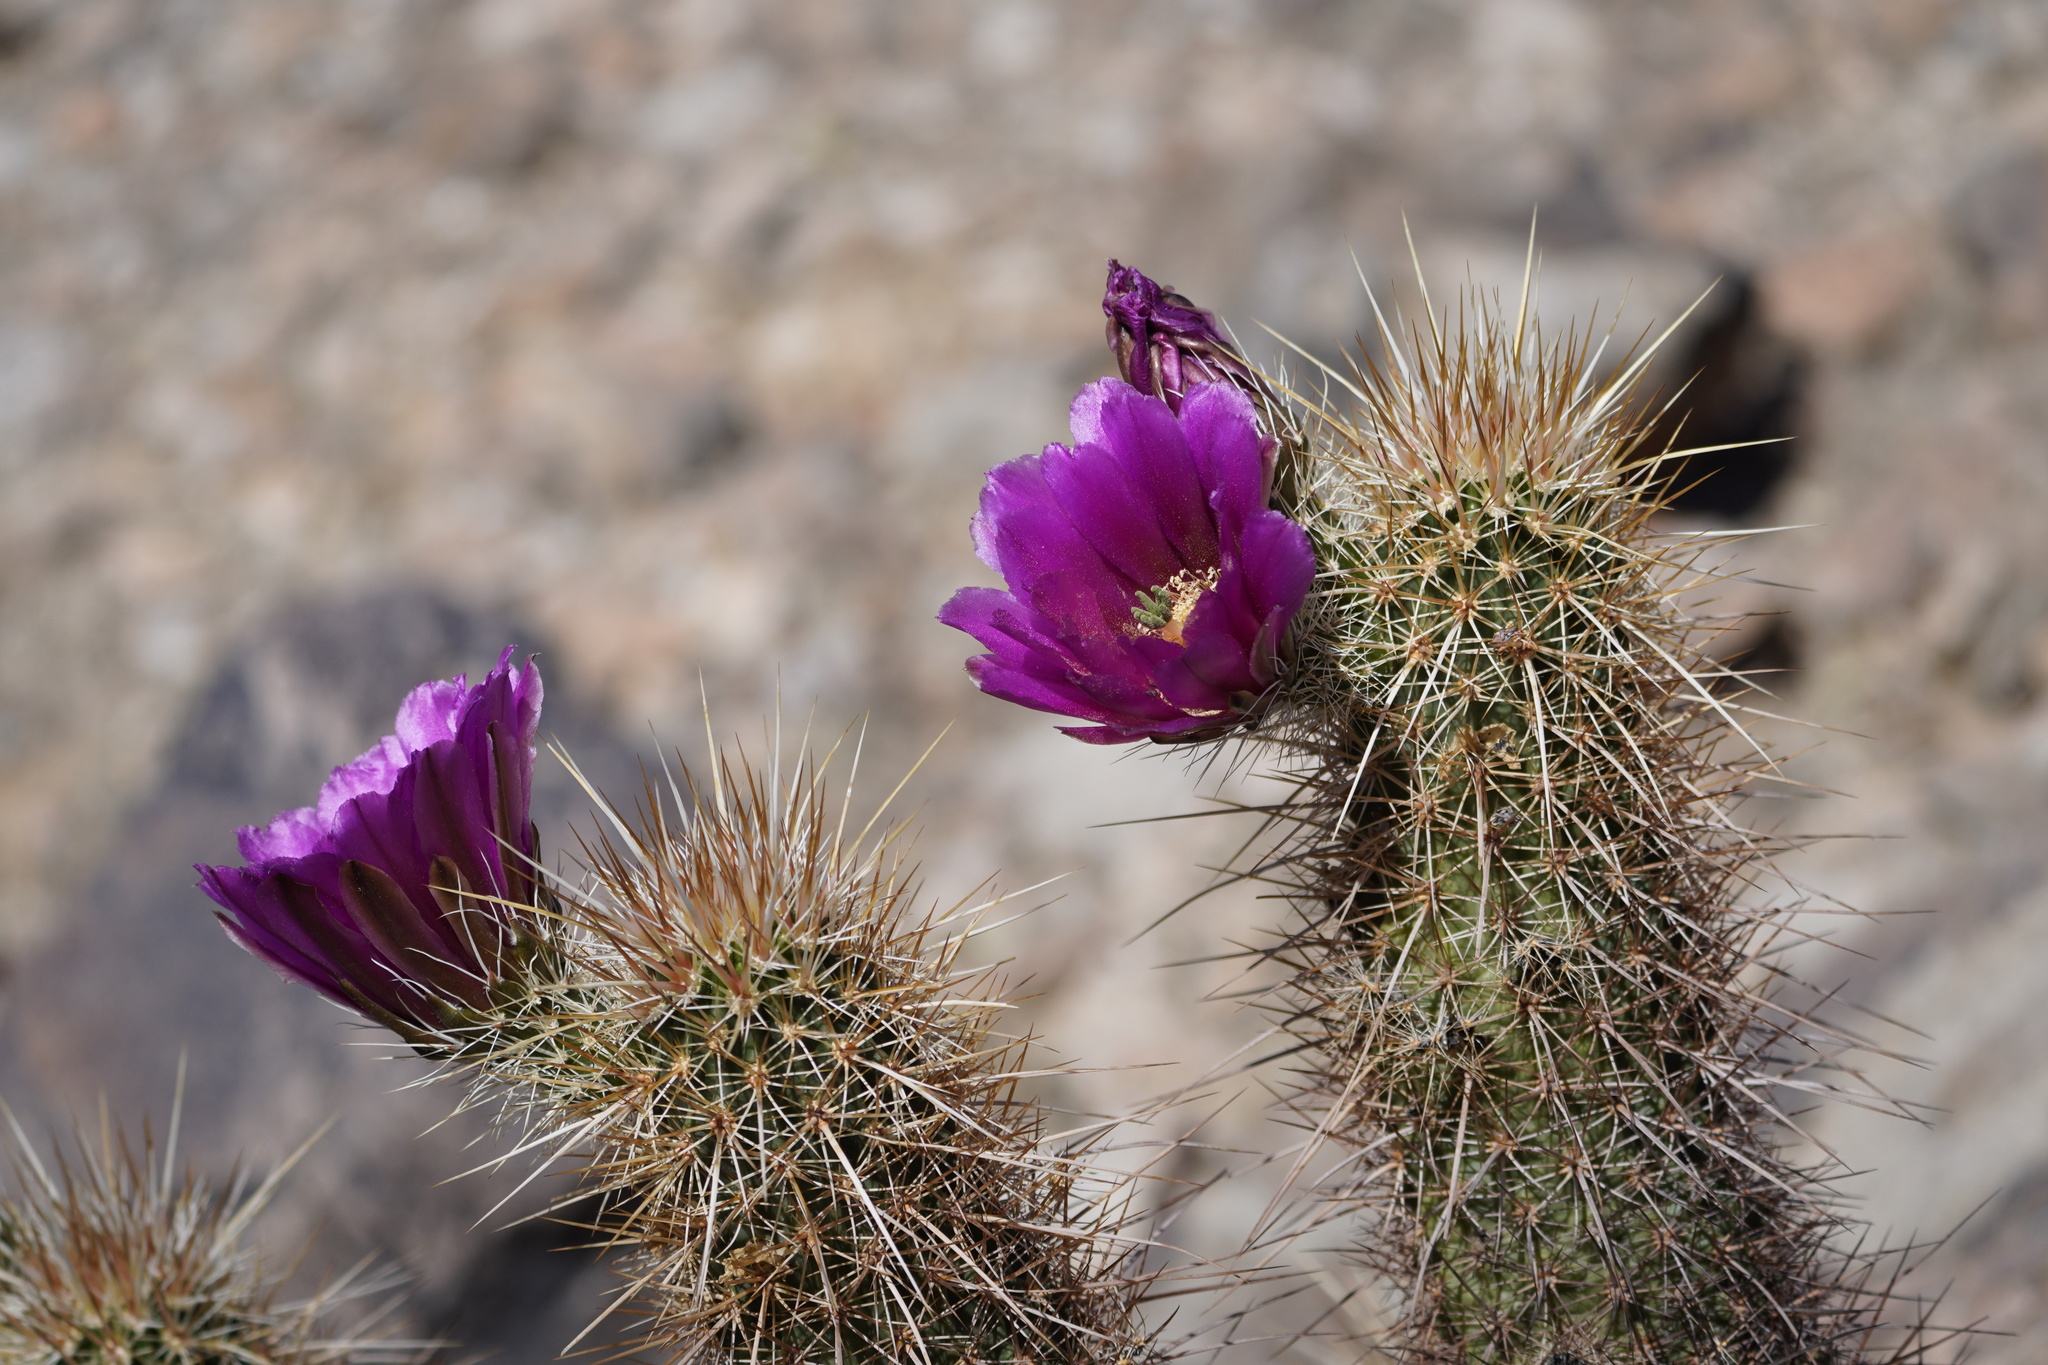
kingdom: Plantae
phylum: Tracheophyta
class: Magnoliopsida
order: Caryophyllales
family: Cactaceae
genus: Echinocereus
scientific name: Echinocereus engelmannii
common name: Engelmann's hedgehog cactus
